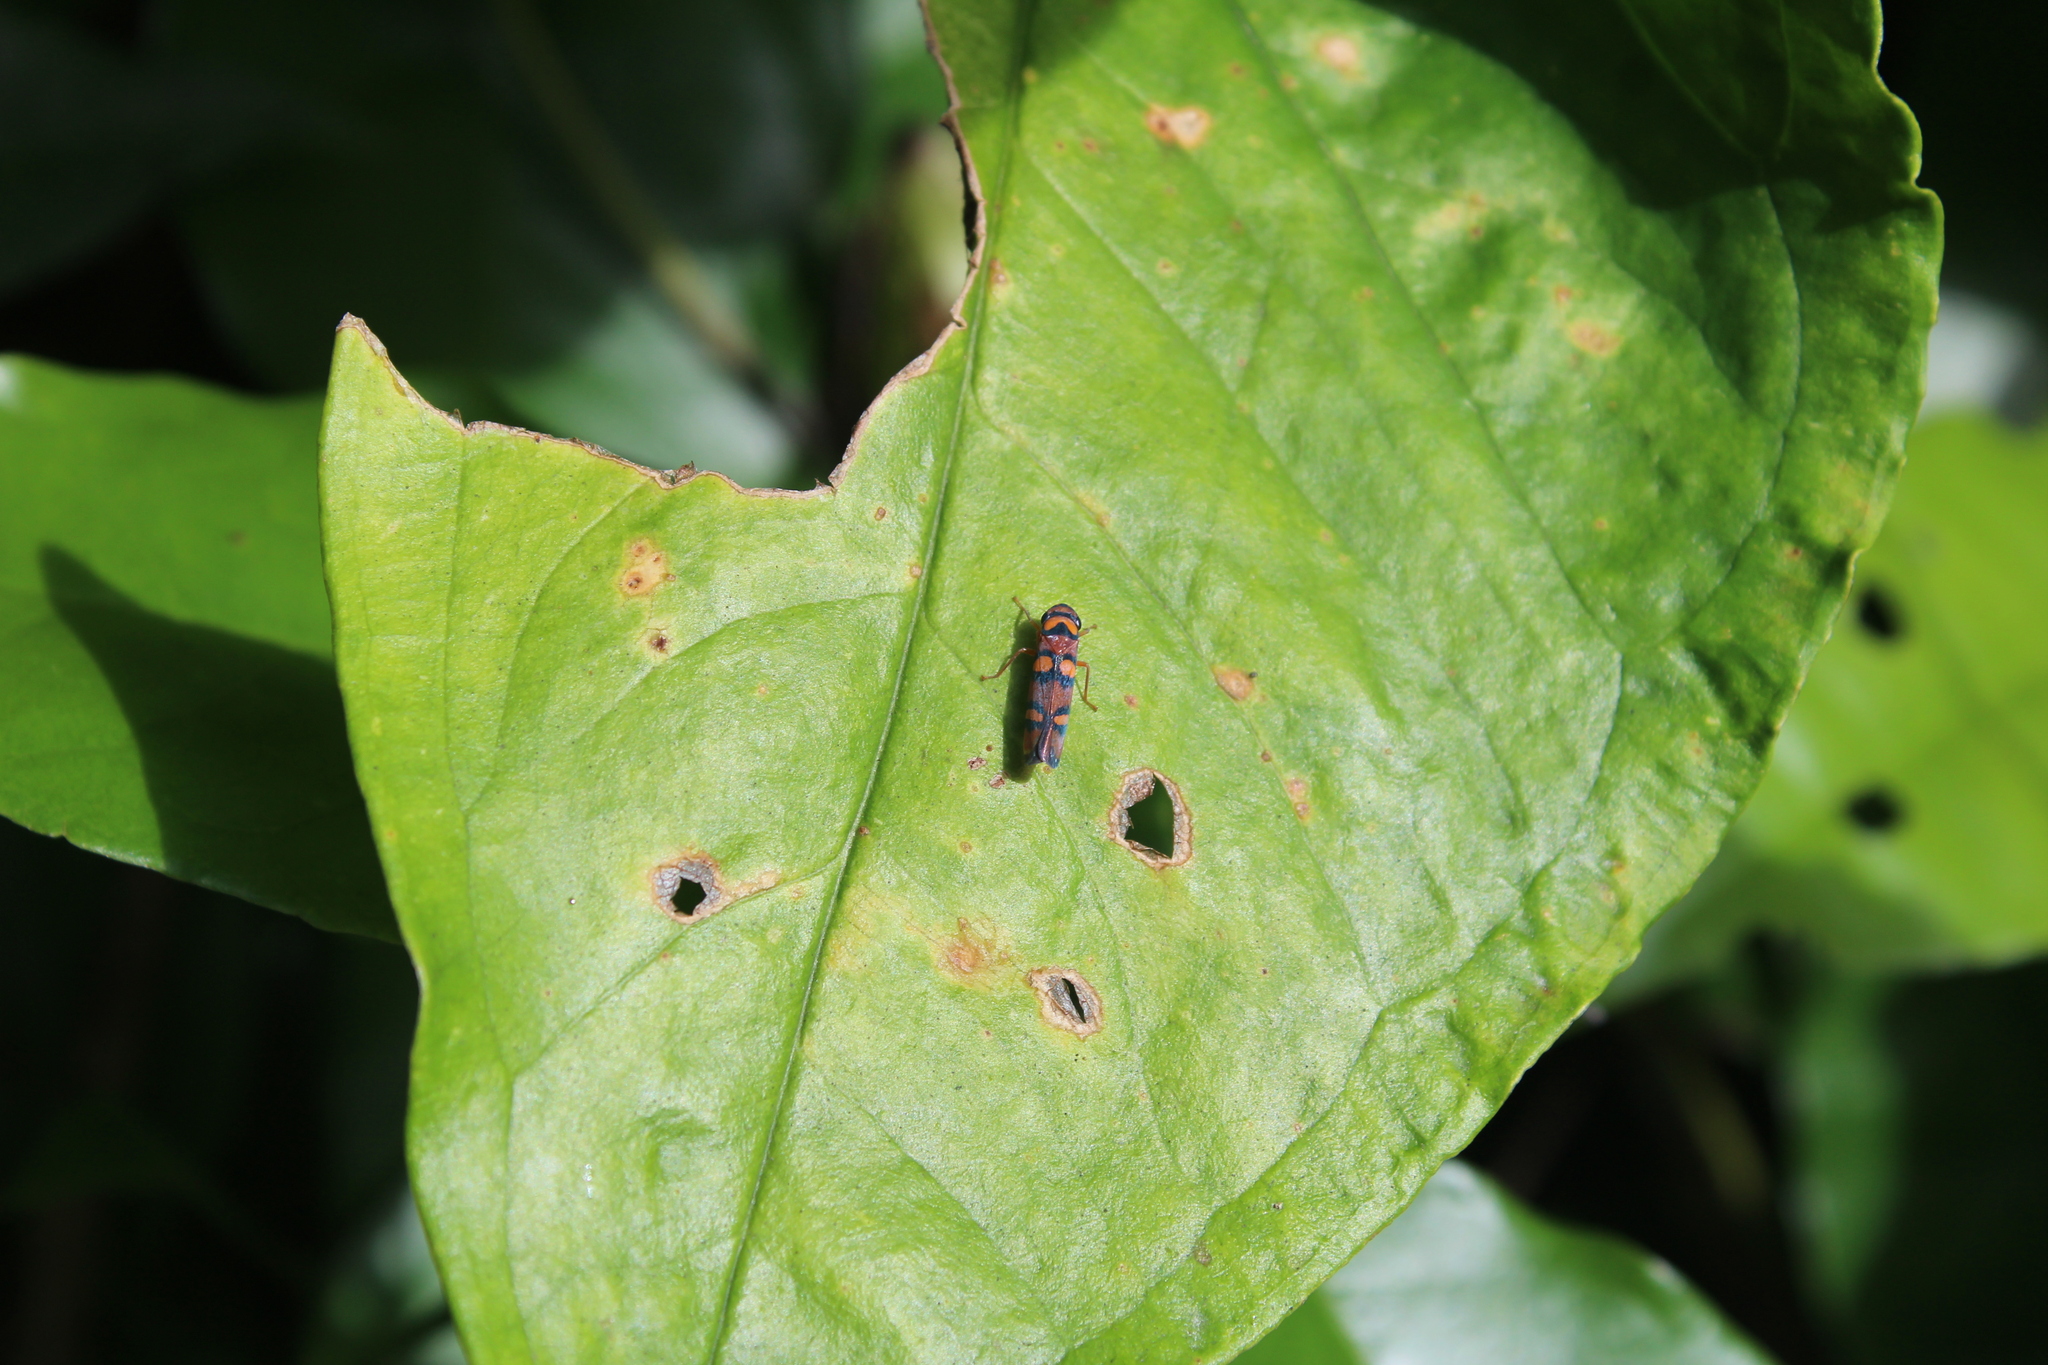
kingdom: Animalia
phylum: Arthropoda
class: Insecta
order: Hemiptera
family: Cicadellidae
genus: Pawiloma
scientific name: Pawiloma jucunda
